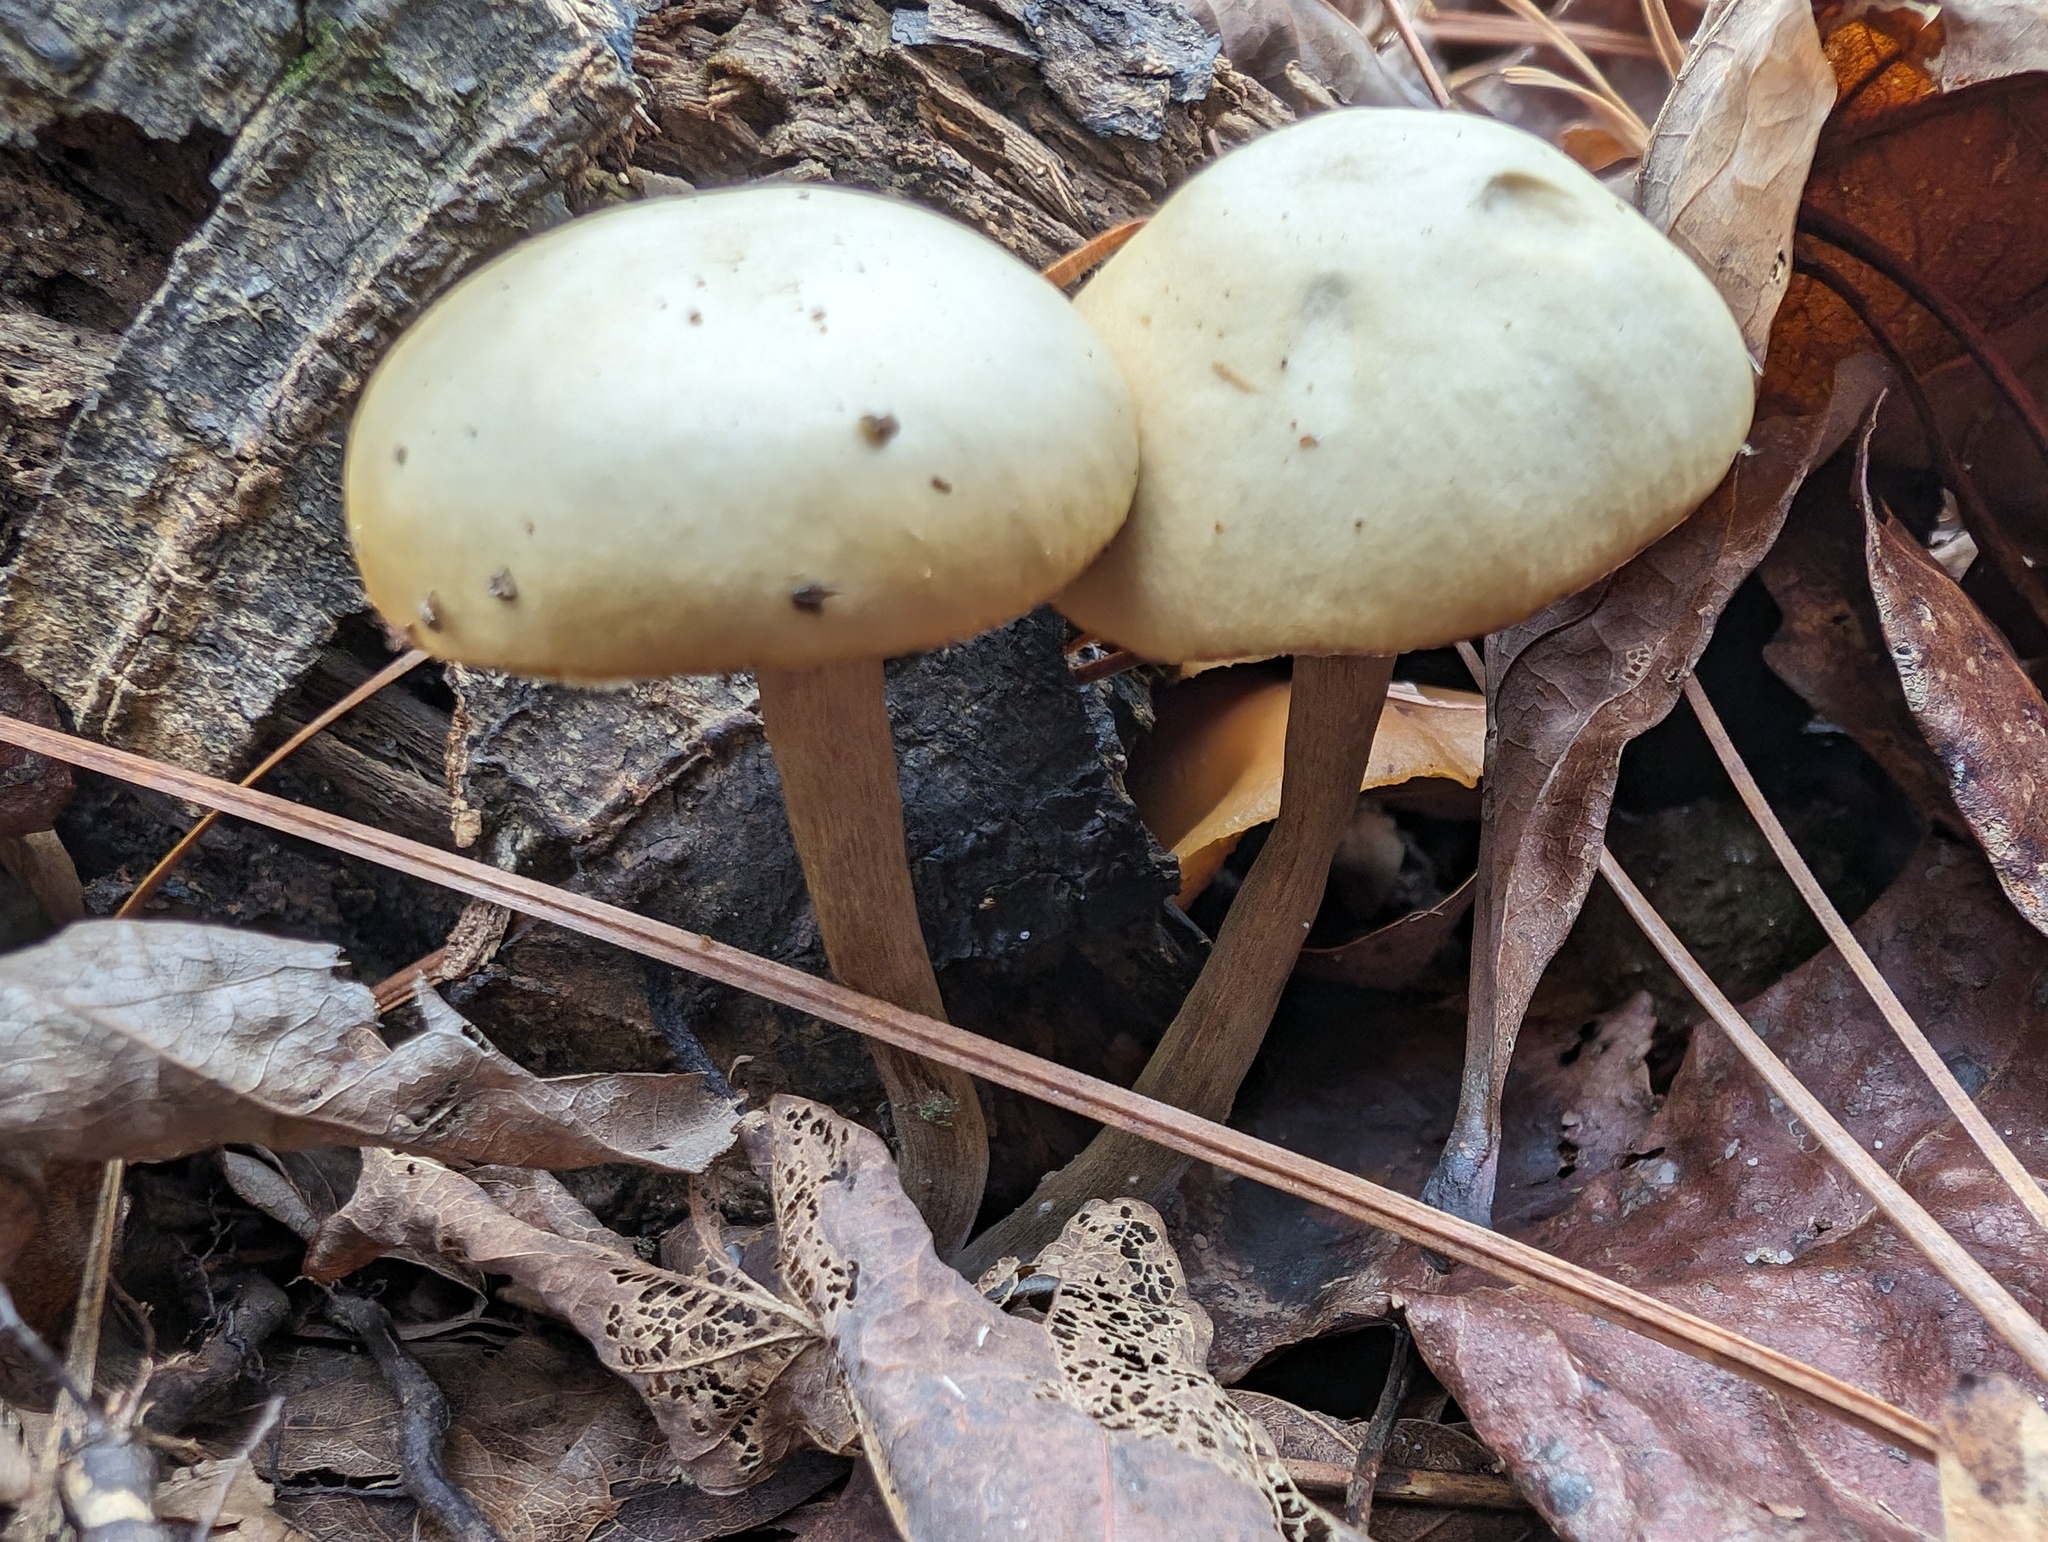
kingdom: Fungi
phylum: Basidiomycota
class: Agaricomycetes
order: Agaricales
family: Hymenogastraceae
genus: Galerina
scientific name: Galerina marginata
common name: Funeral bell
